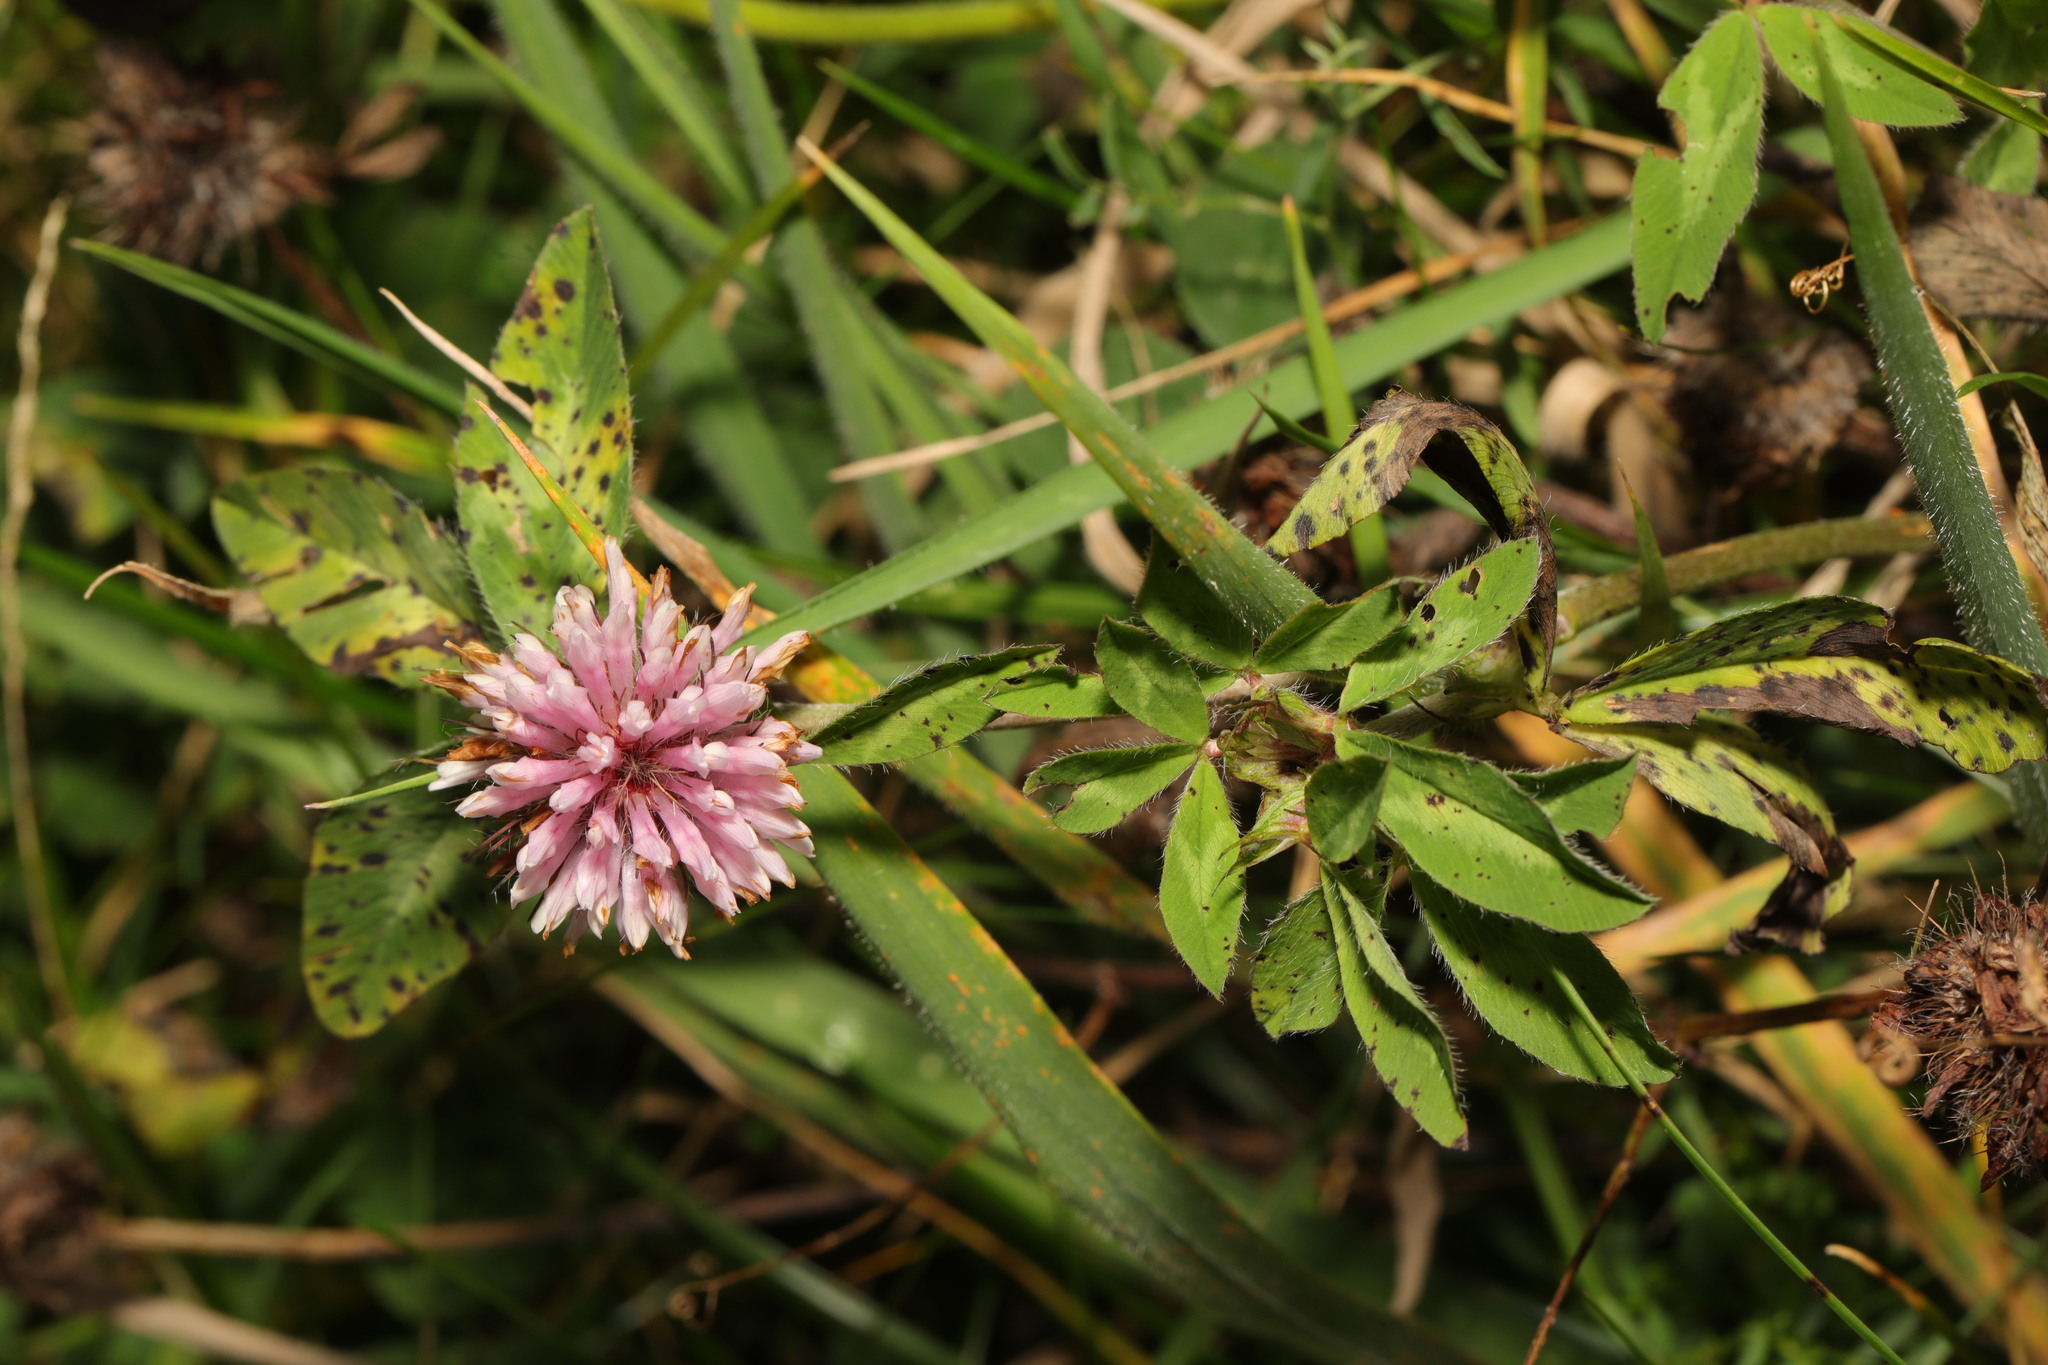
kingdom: Plantae
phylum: Tracheophyta
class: Magnoliopsida
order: Fabales
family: Fabaceae
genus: Trifolium
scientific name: Trifolium pratense
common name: Red clover
